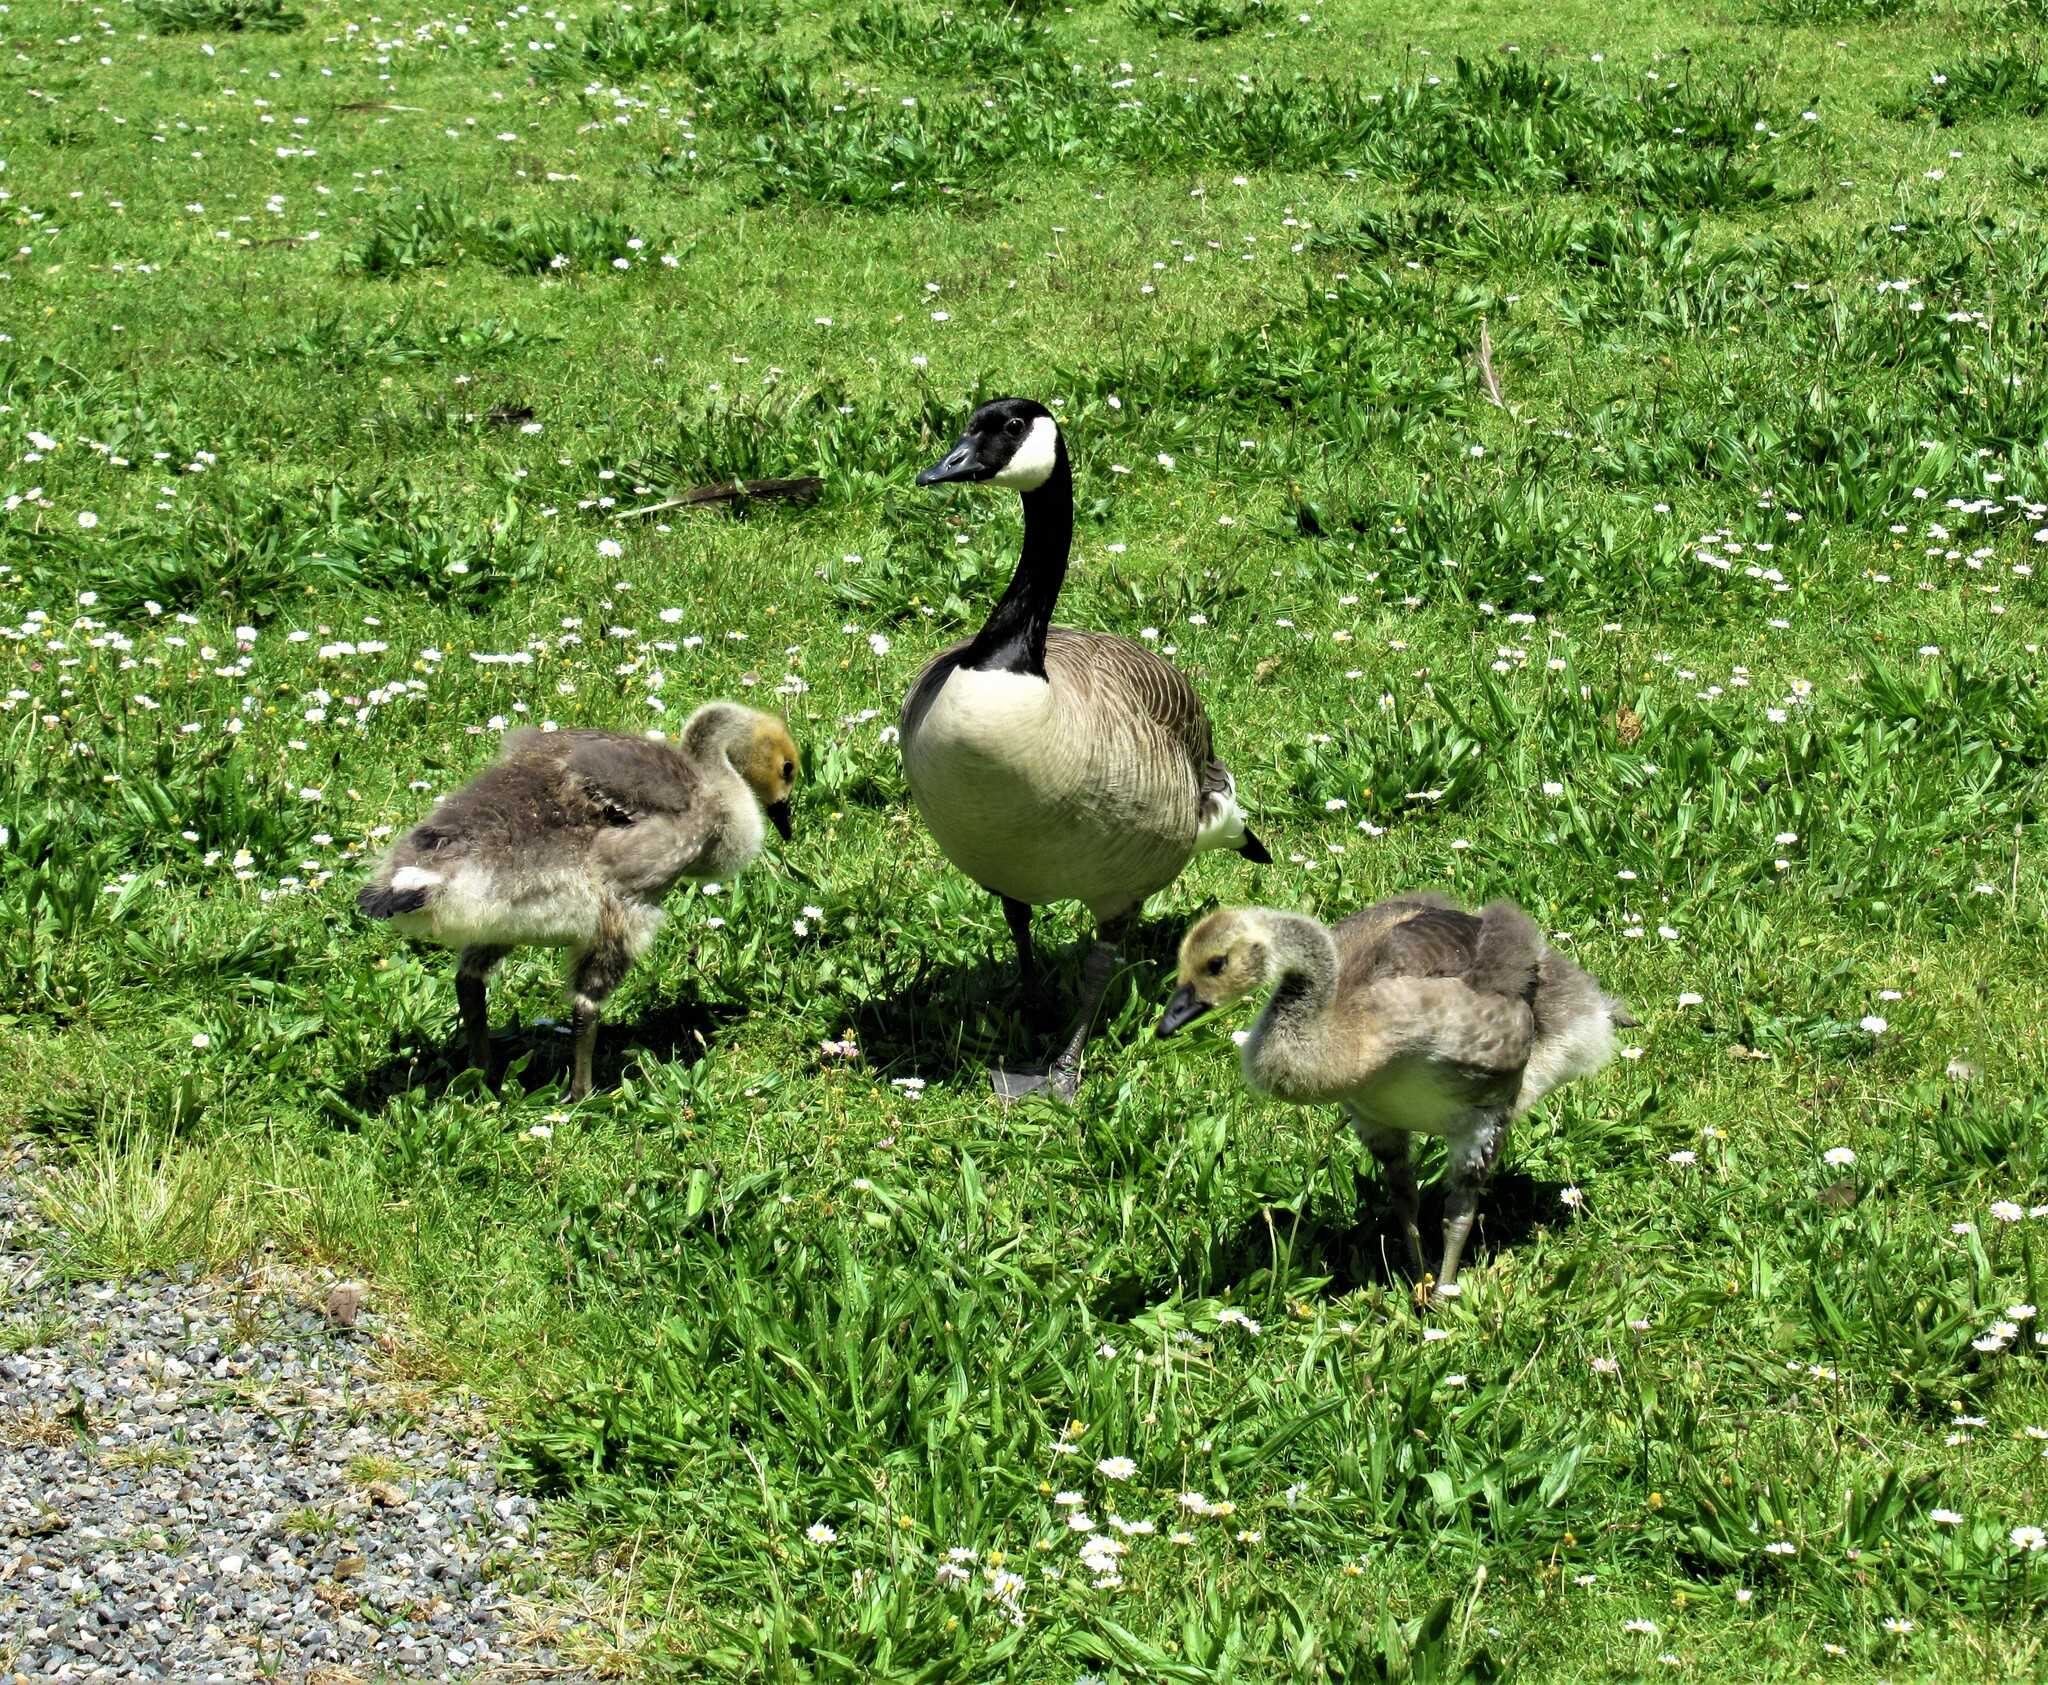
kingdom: Animalia
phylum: Chordata
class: Aves
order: Anseriformes
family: Anatidae
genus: Branta
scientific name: Branta canadensis
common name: Canada goose
